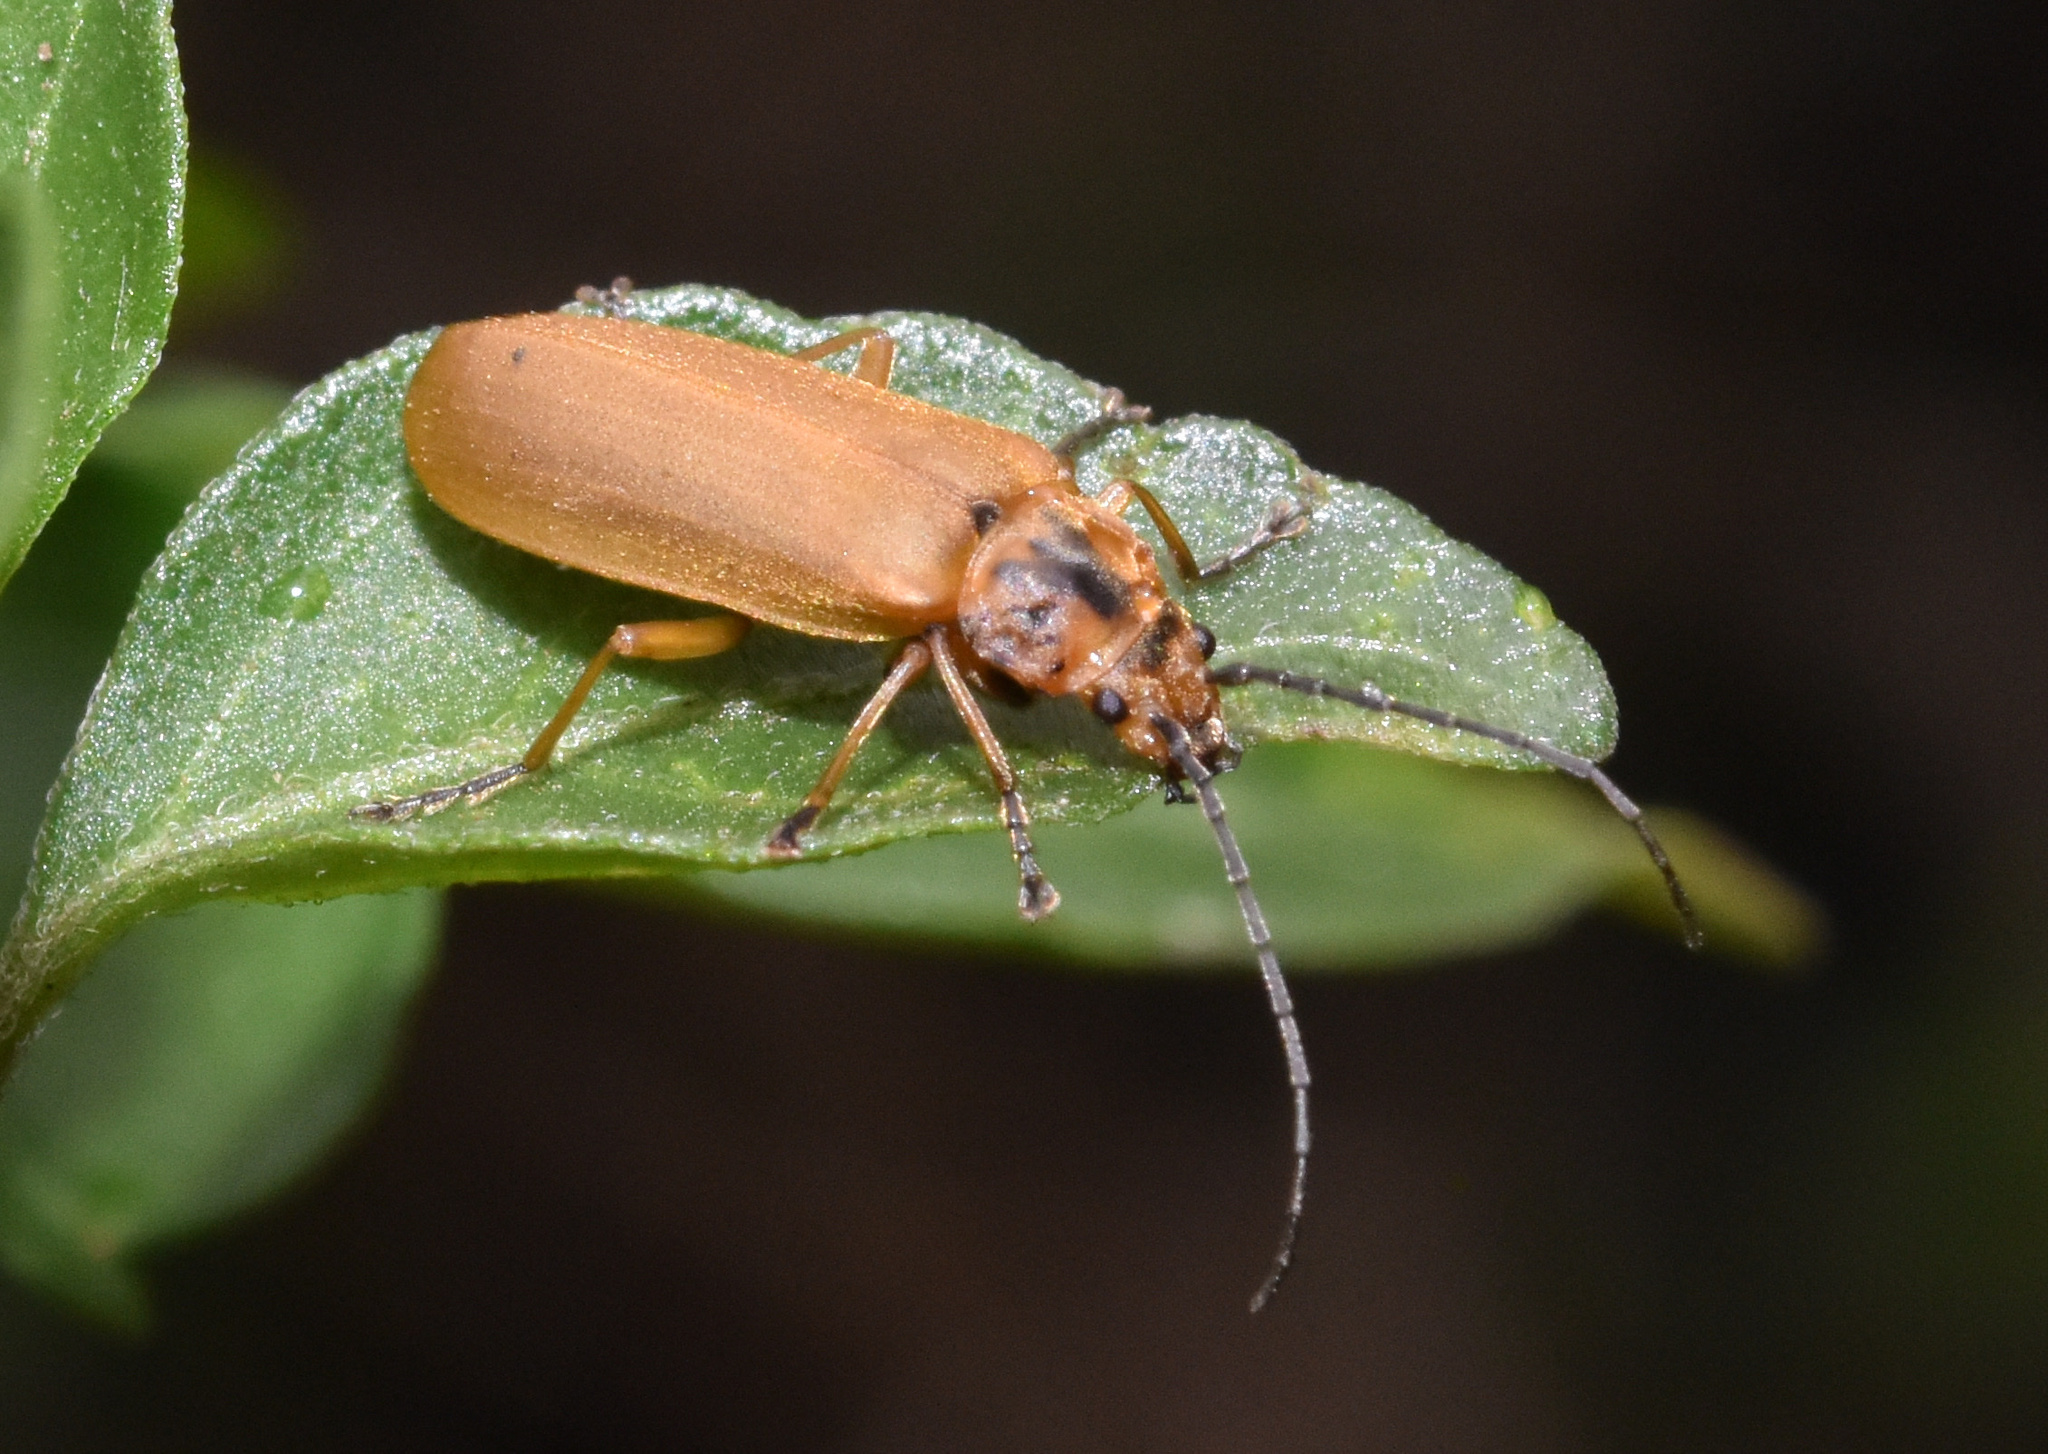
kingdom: Animalia
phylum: Arthropoda
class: Insecta
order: Coleoptera
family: Cantharidae
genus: Afronycha
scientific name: Afronycha
